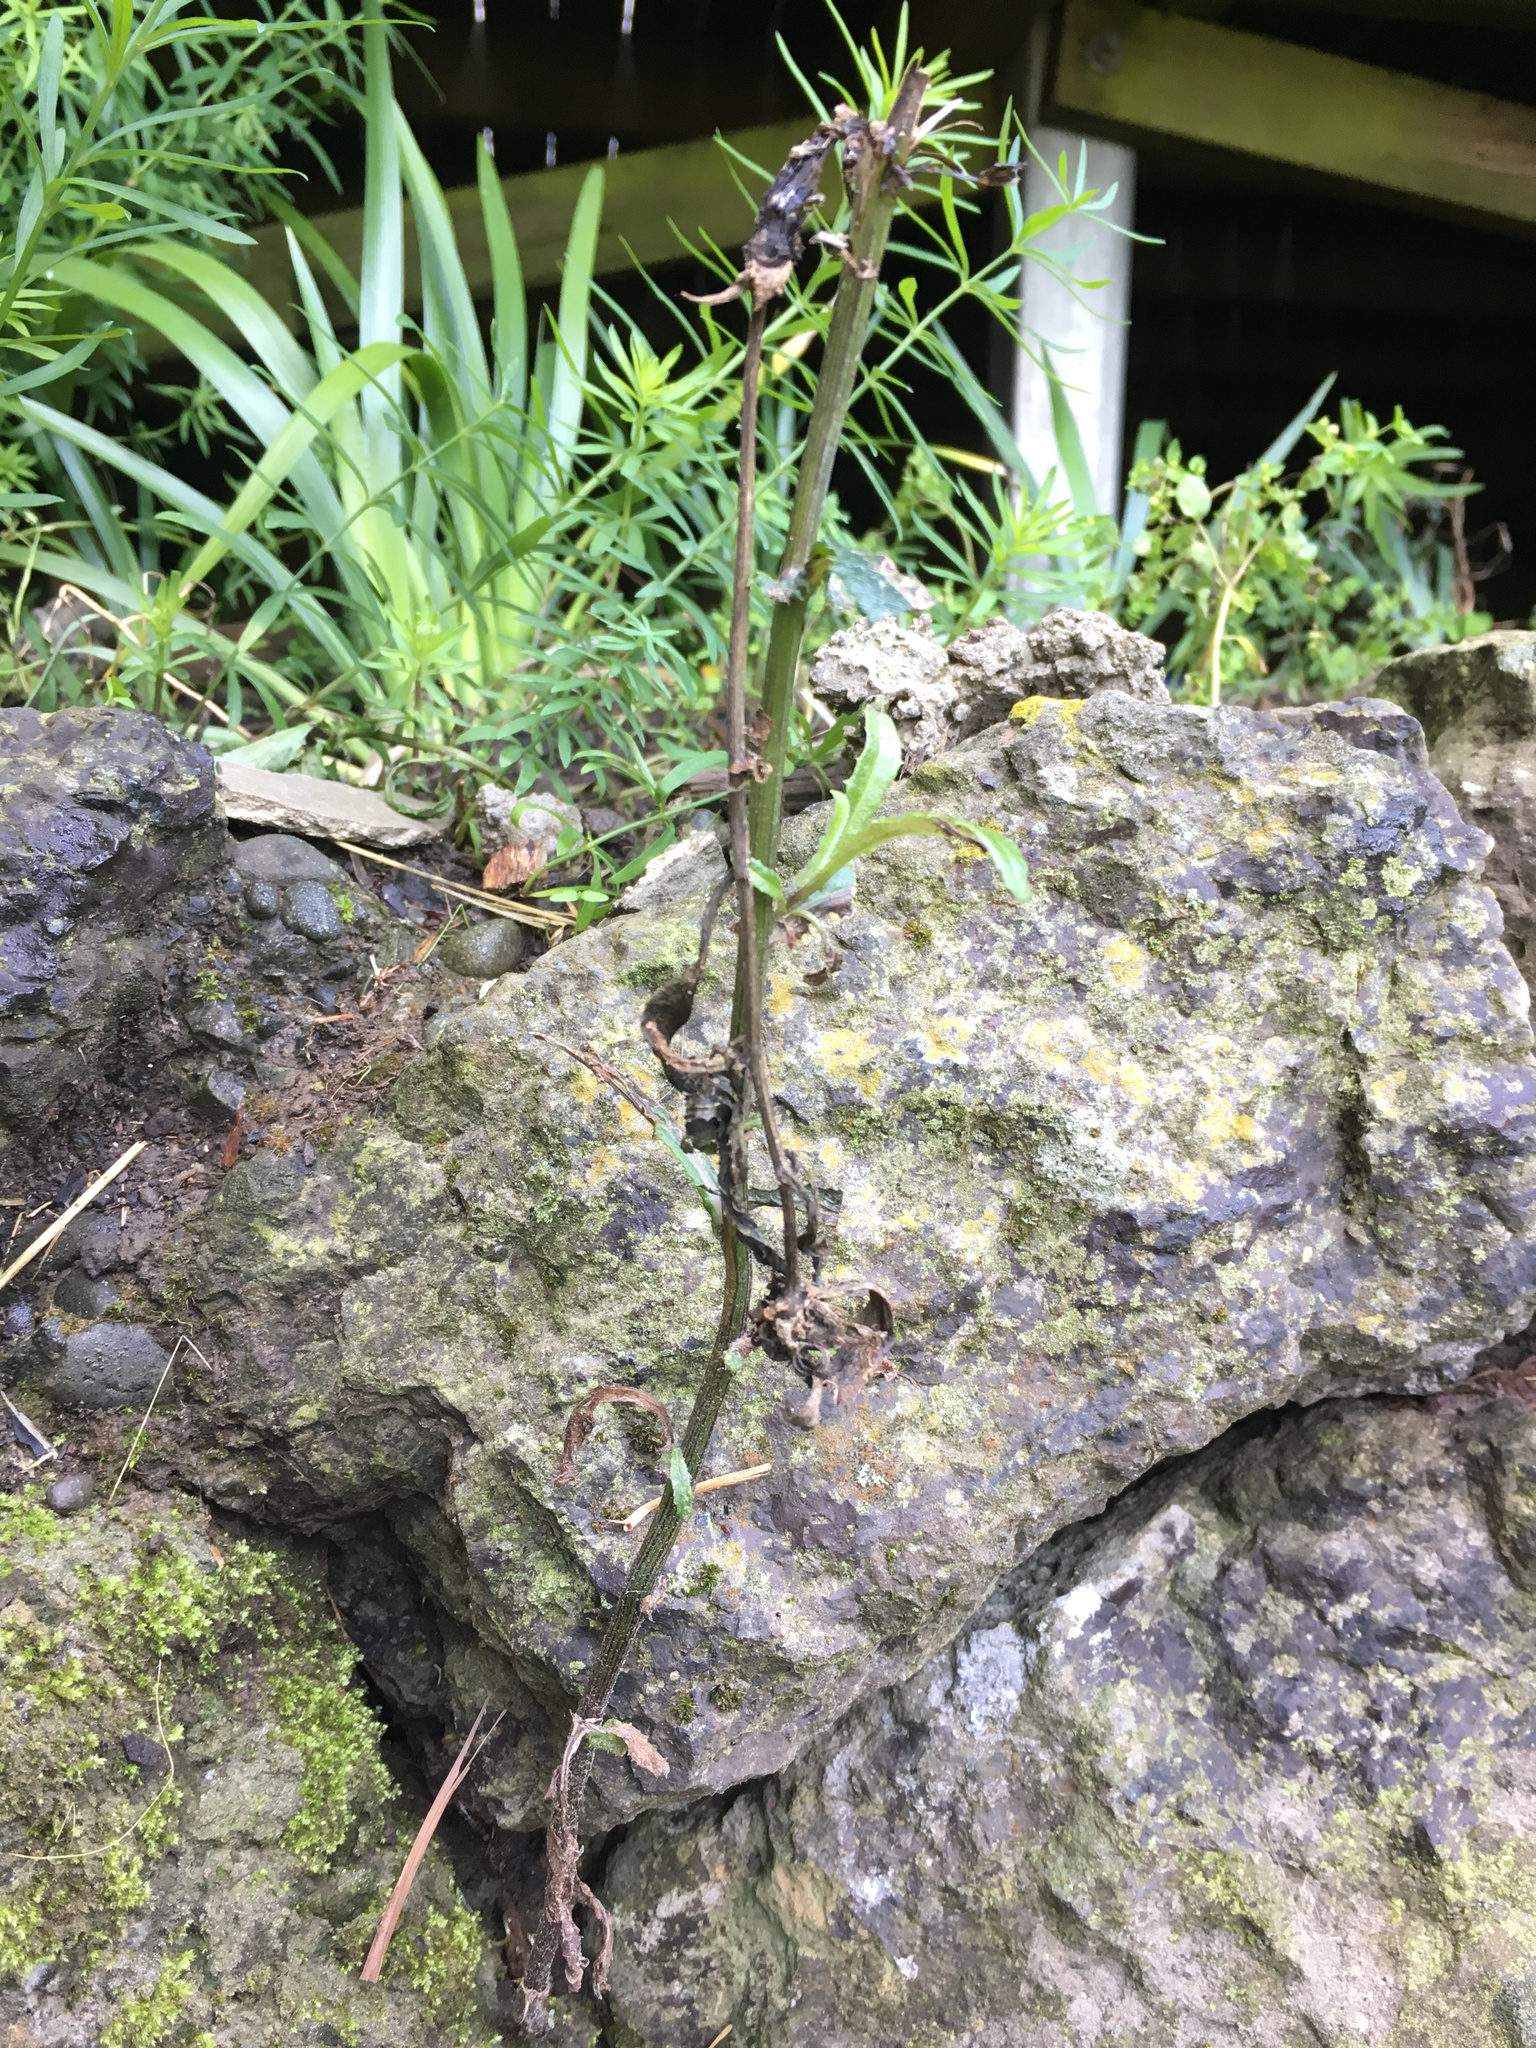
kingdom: Plantae
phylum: Tracheophyta
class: Magnoliopsida
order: Asterales
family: Asteraceae
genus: Senecio
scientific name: Senecio minimus
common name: Toothed fireweed
